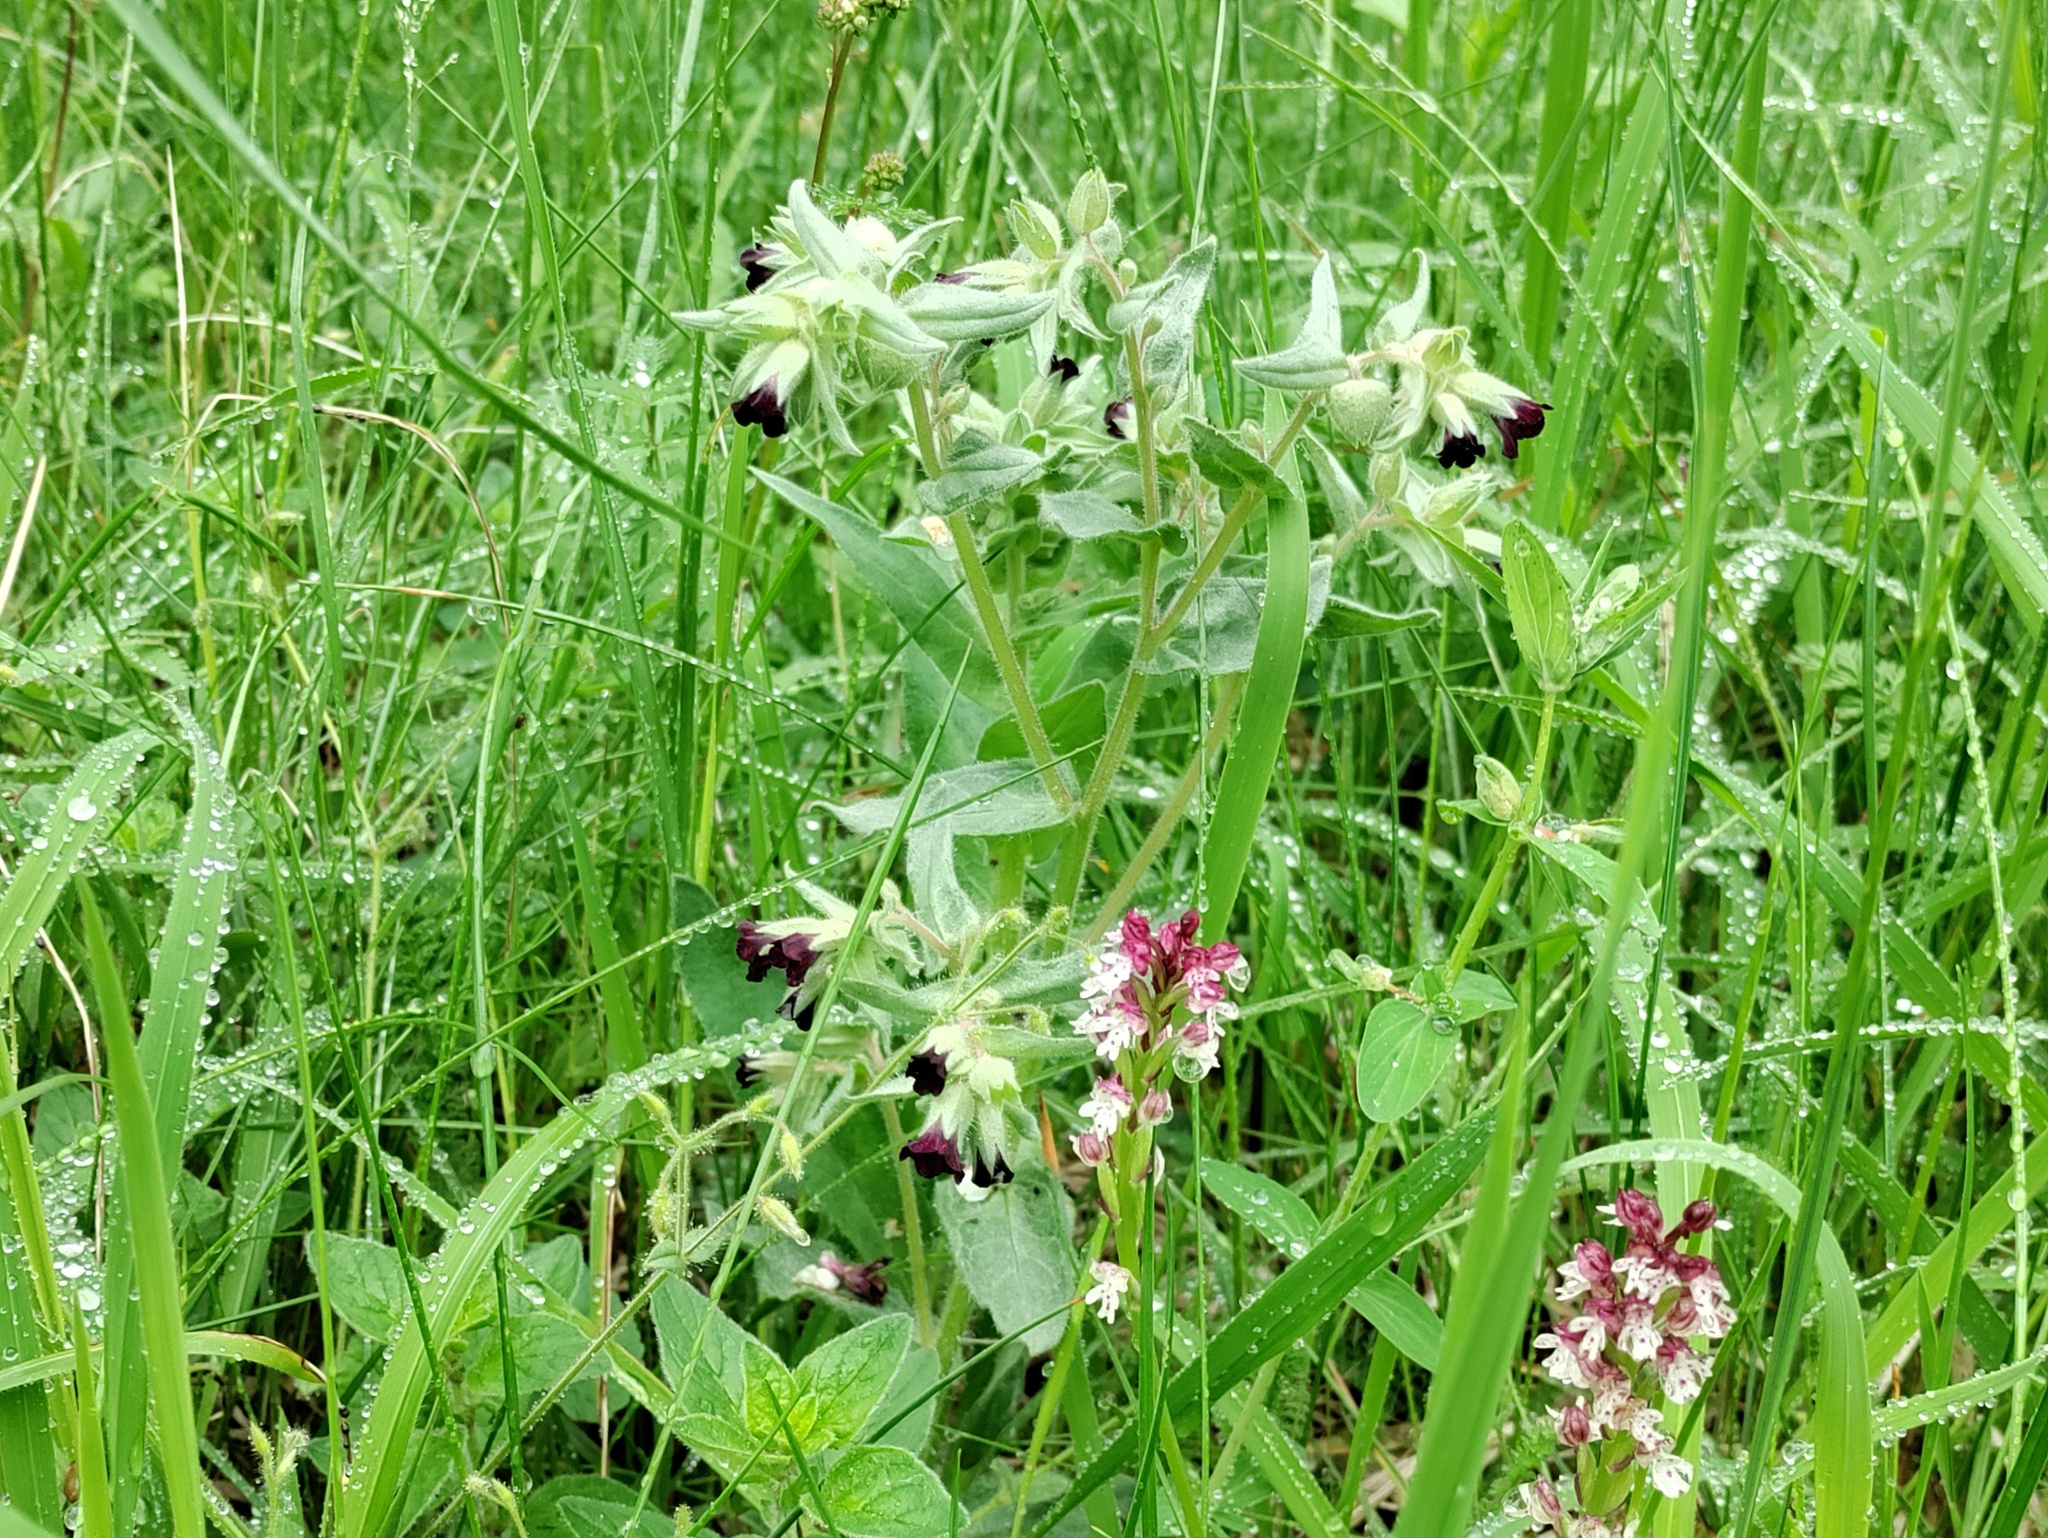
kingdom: Plantae
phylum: Tracheophyta
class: Magnoliopsida
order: Boraginales
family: Boraginaceae
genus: Nonea
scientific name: Nonea pulla
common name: Brown nonea
